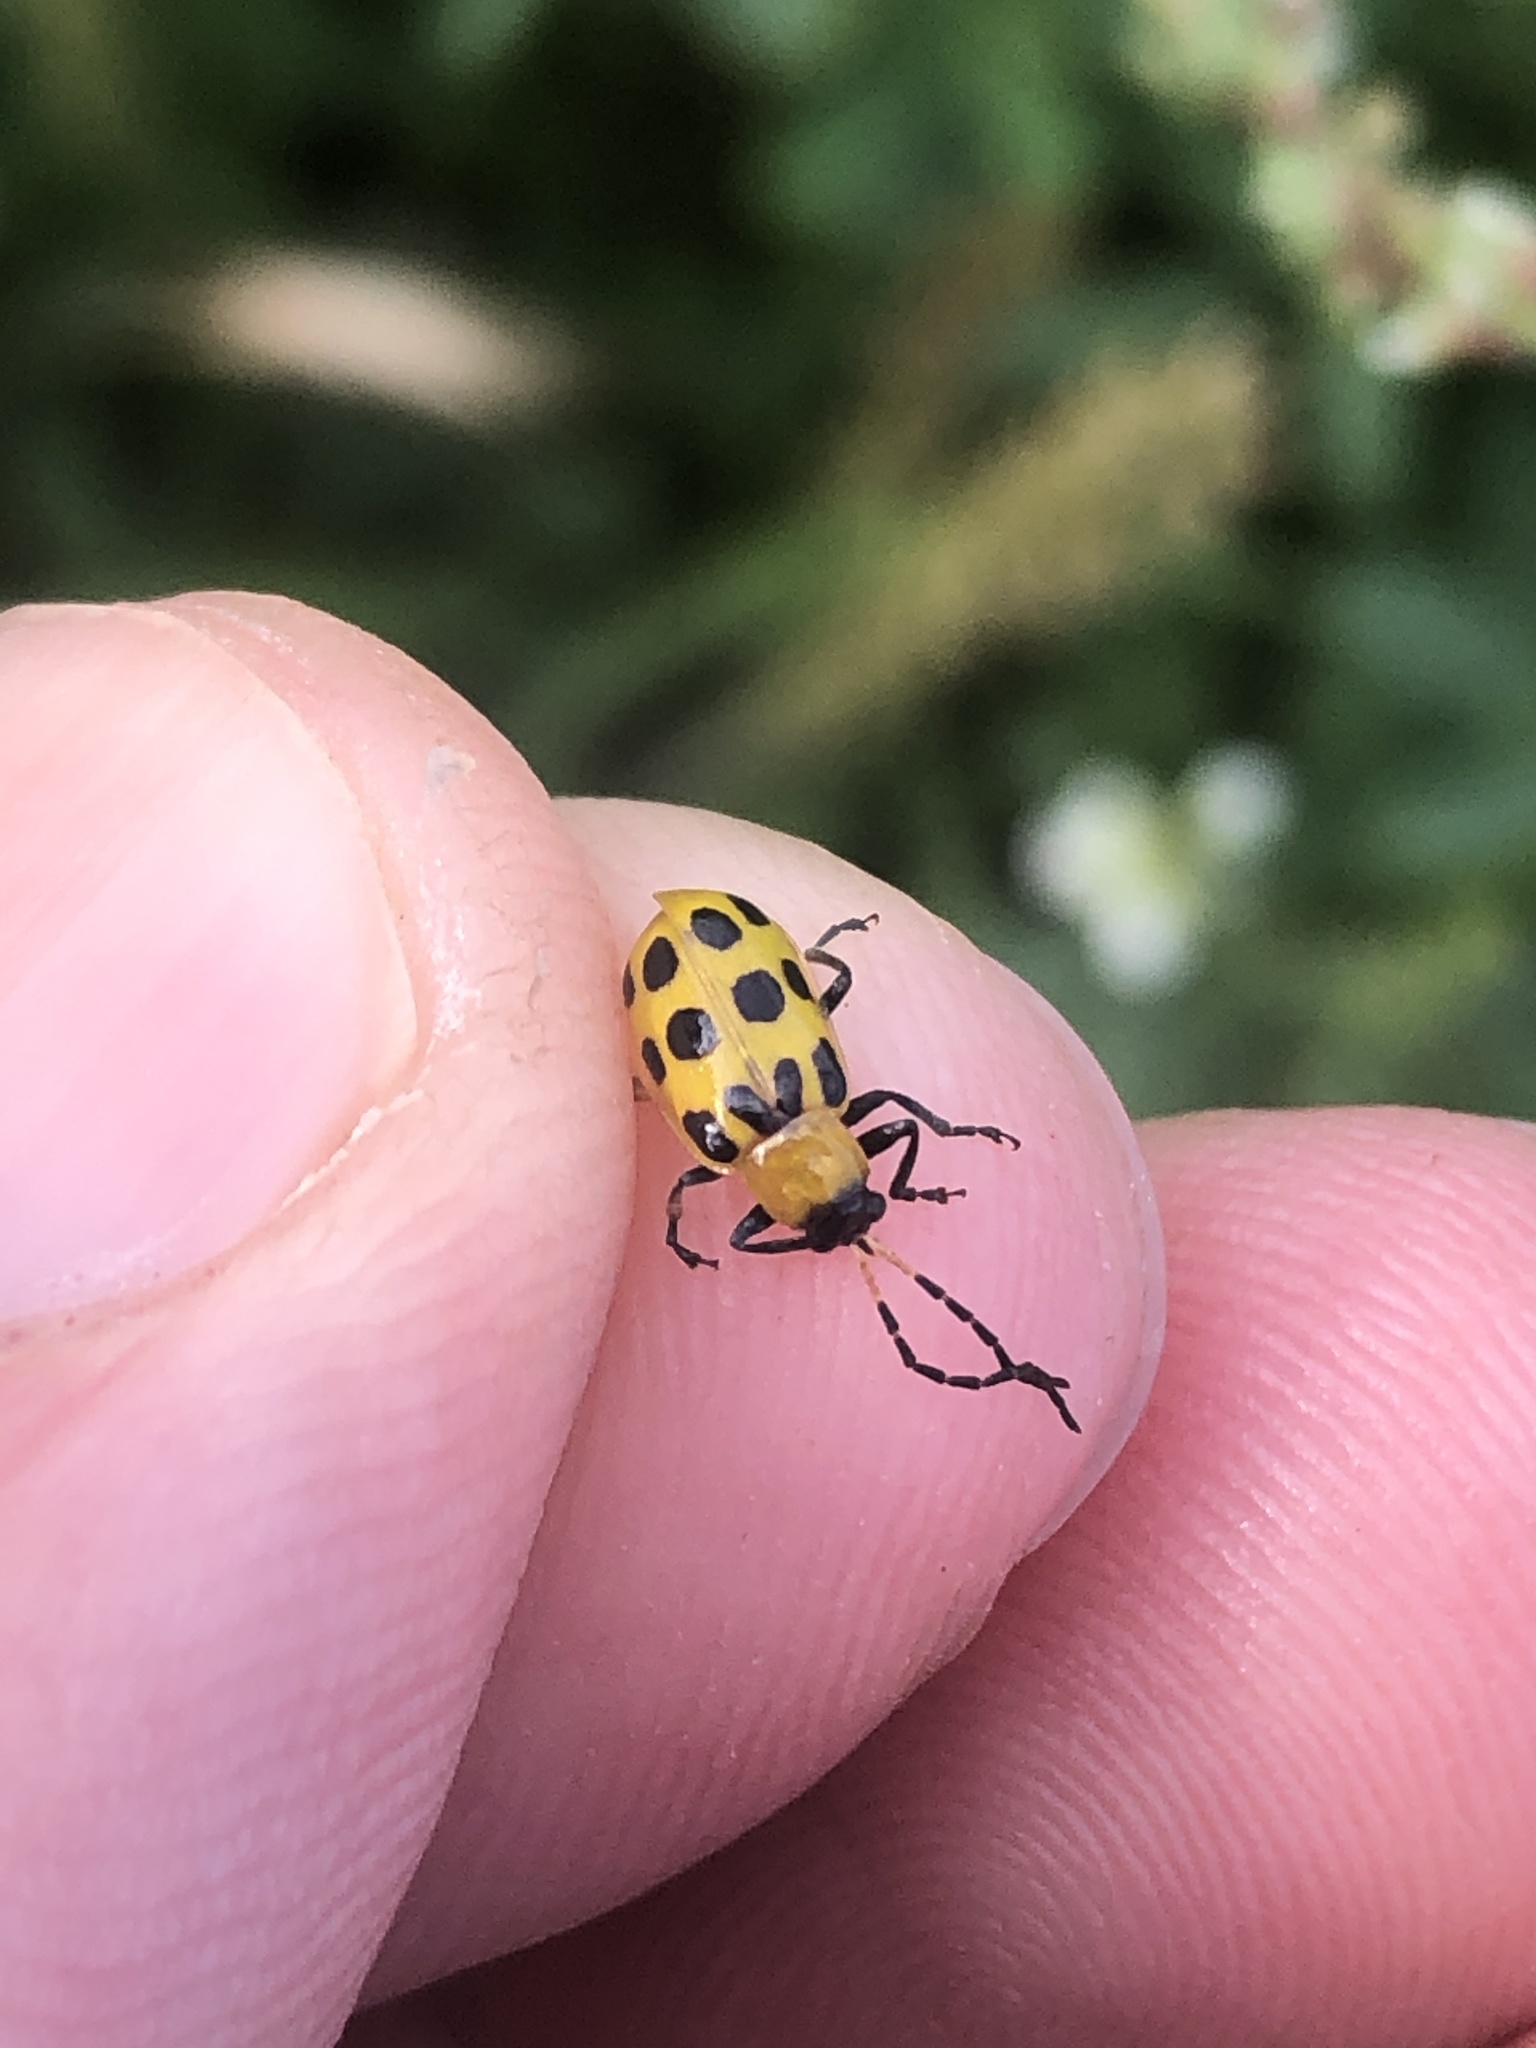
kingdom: Animalia
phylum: Arthropoda
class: Insecta
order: Coleoptera
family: Chrysomelidae
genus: Diabrotica
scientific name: Diabrotica undecimpunctata
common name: Spotted cucumber beetle
